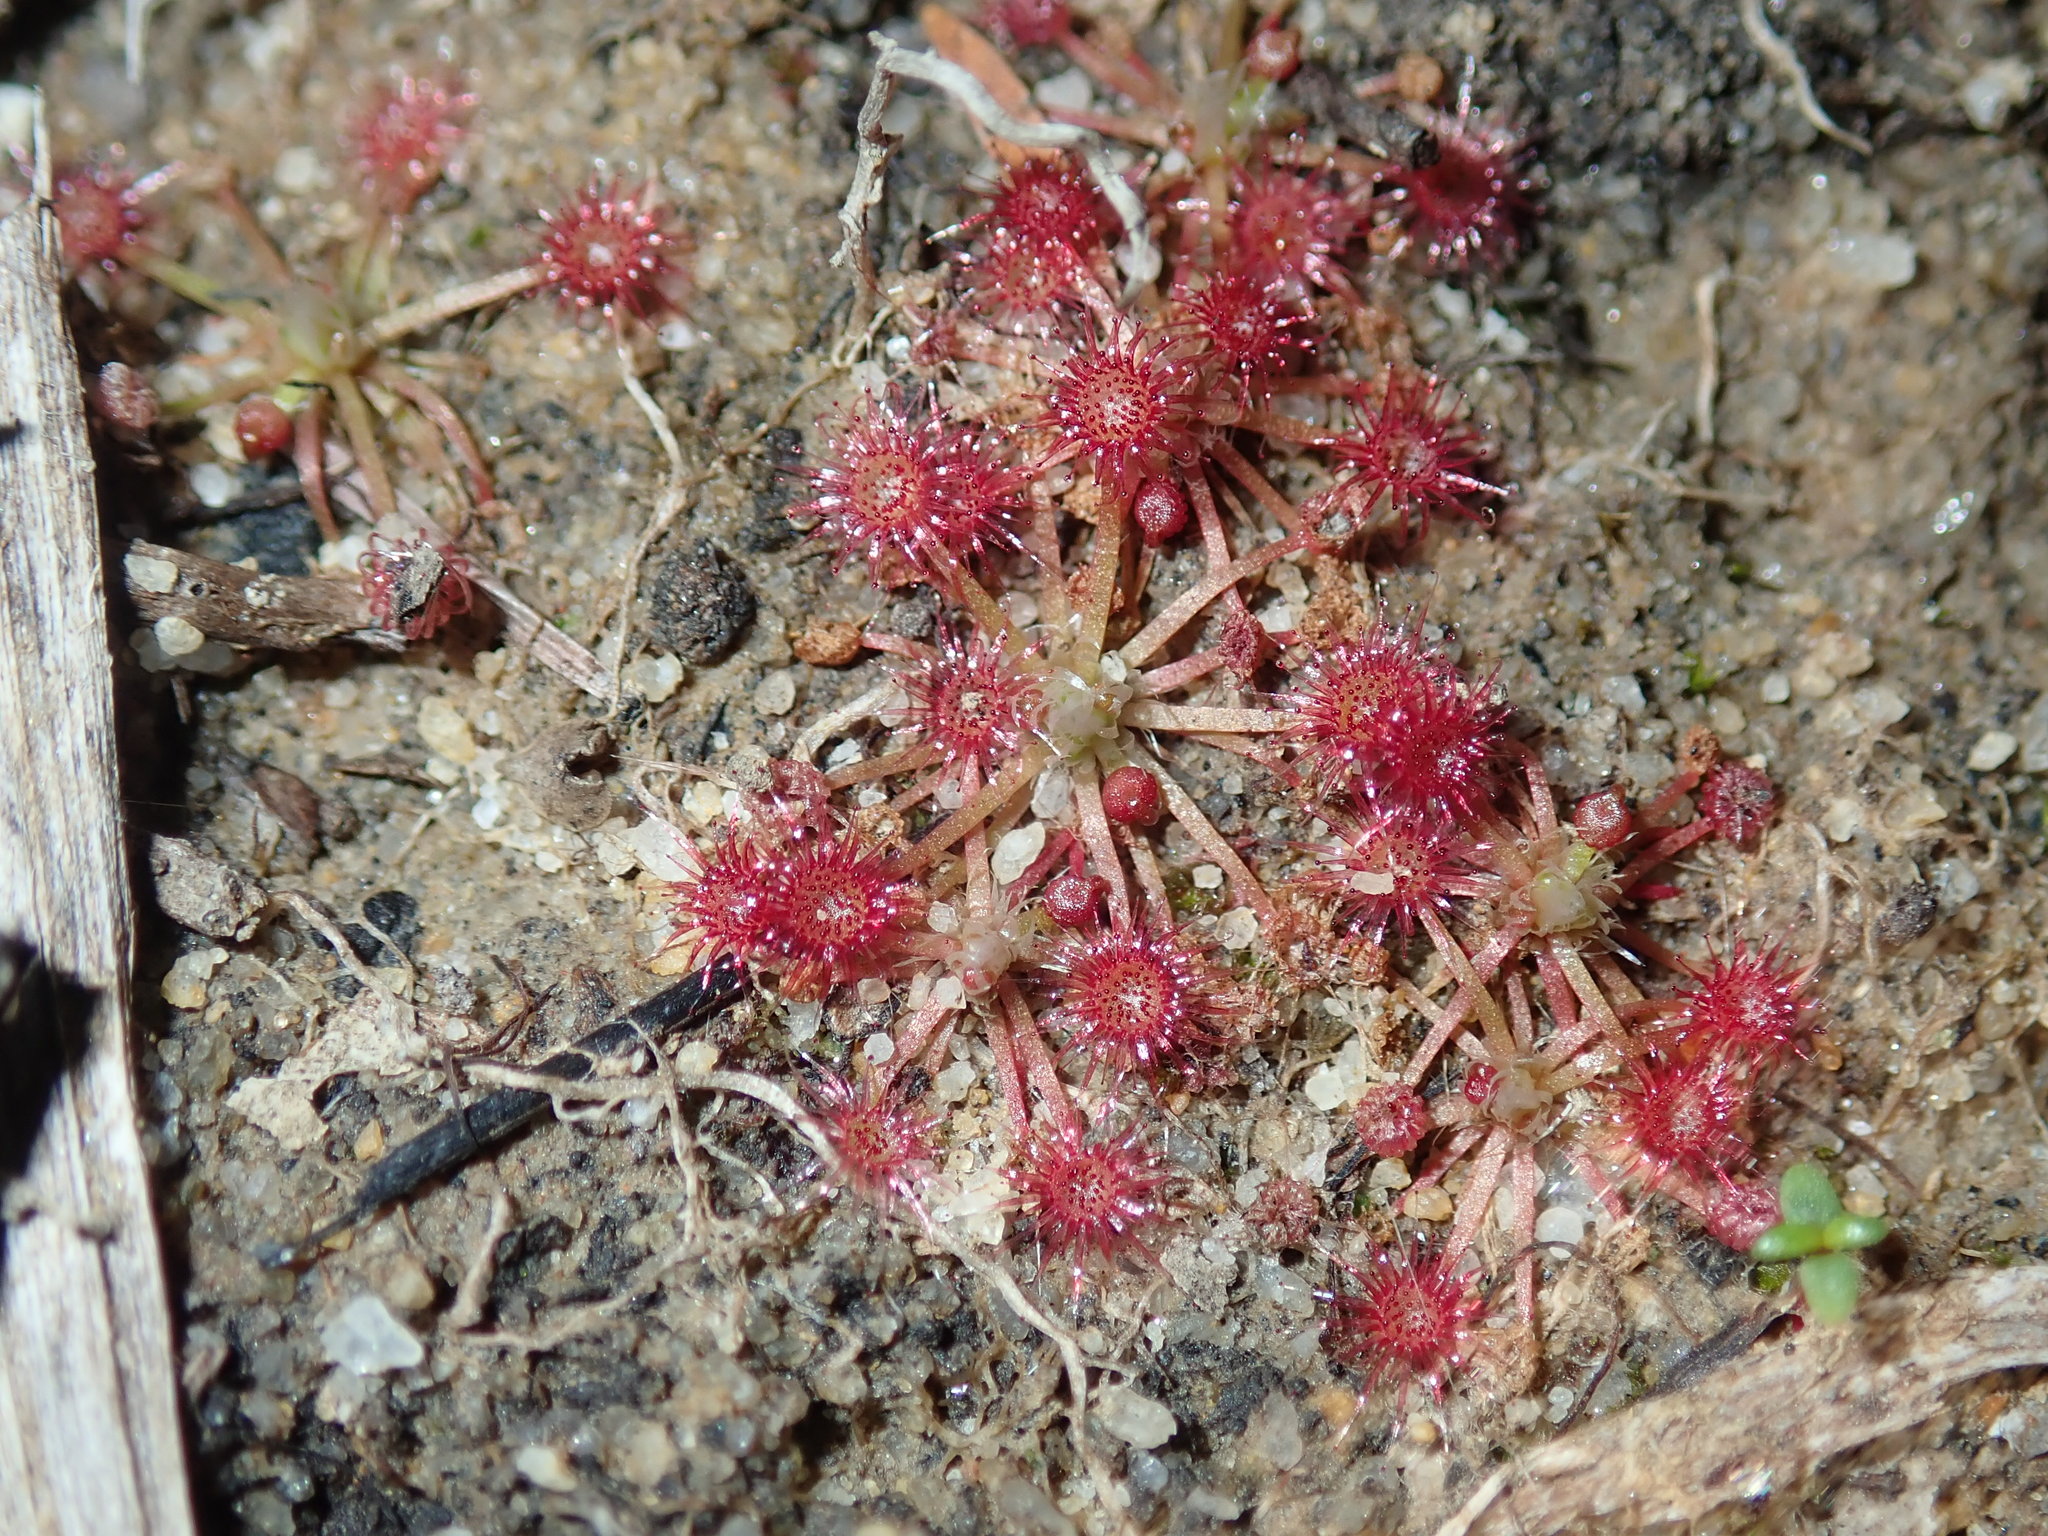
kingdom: Plantae
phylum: Tracheophyta
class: Magnoliopsida
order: Caryophyllales
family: Droseraceae
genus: Drosera
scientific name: Drosera pygmaea
